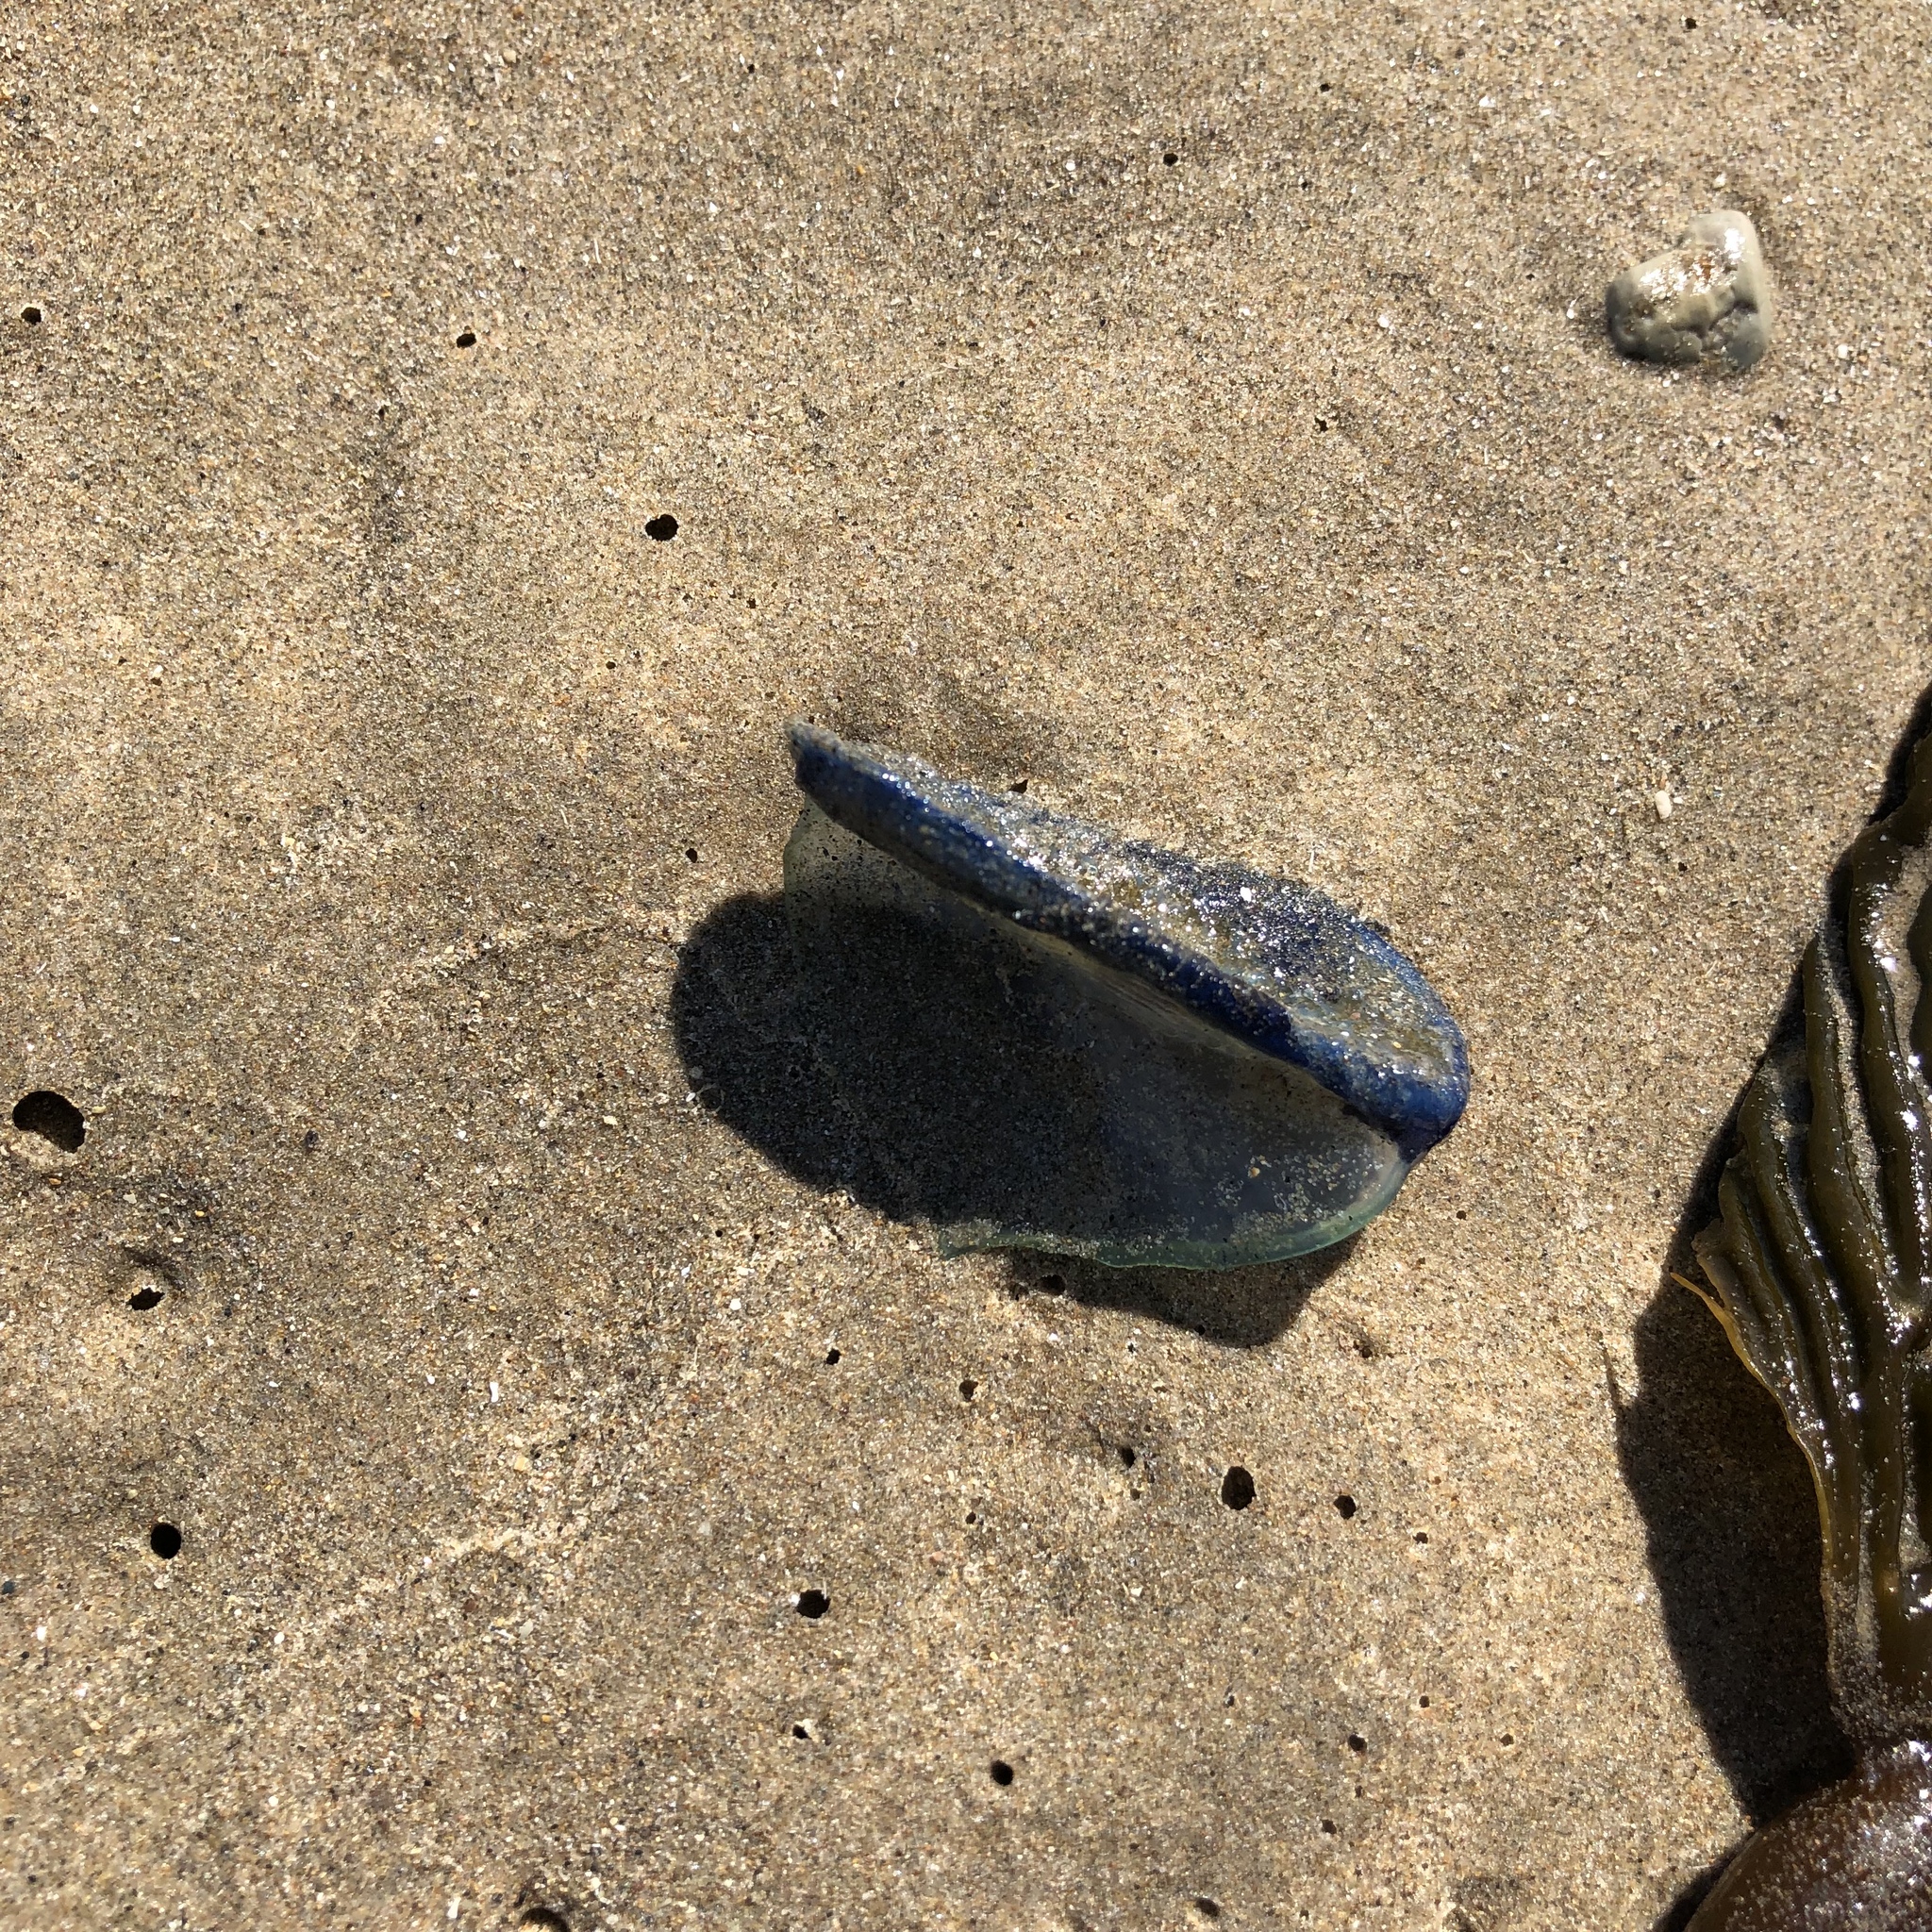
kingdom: Animalia
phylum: Cnidaria
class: Hydrozoa
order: Anthoathecata
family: Porpitidae
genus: Velella
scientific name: Velella velella
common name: By-the-wind-sailor
